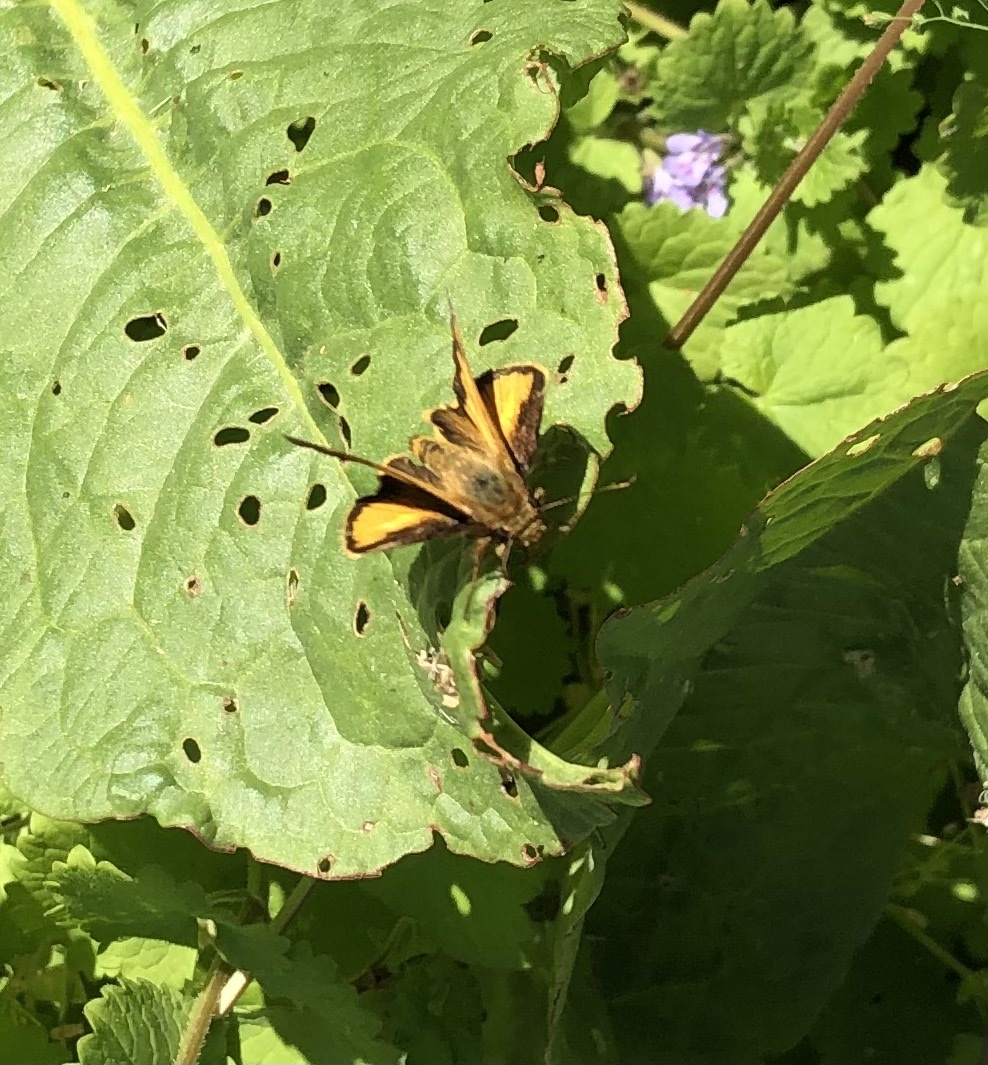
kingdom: Animalia
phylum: Arthropoda
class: Insecta
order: Lepidoptera
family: Hesperiidae
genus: Lon
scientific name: Lon zabulon
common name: Zabulon skipper
